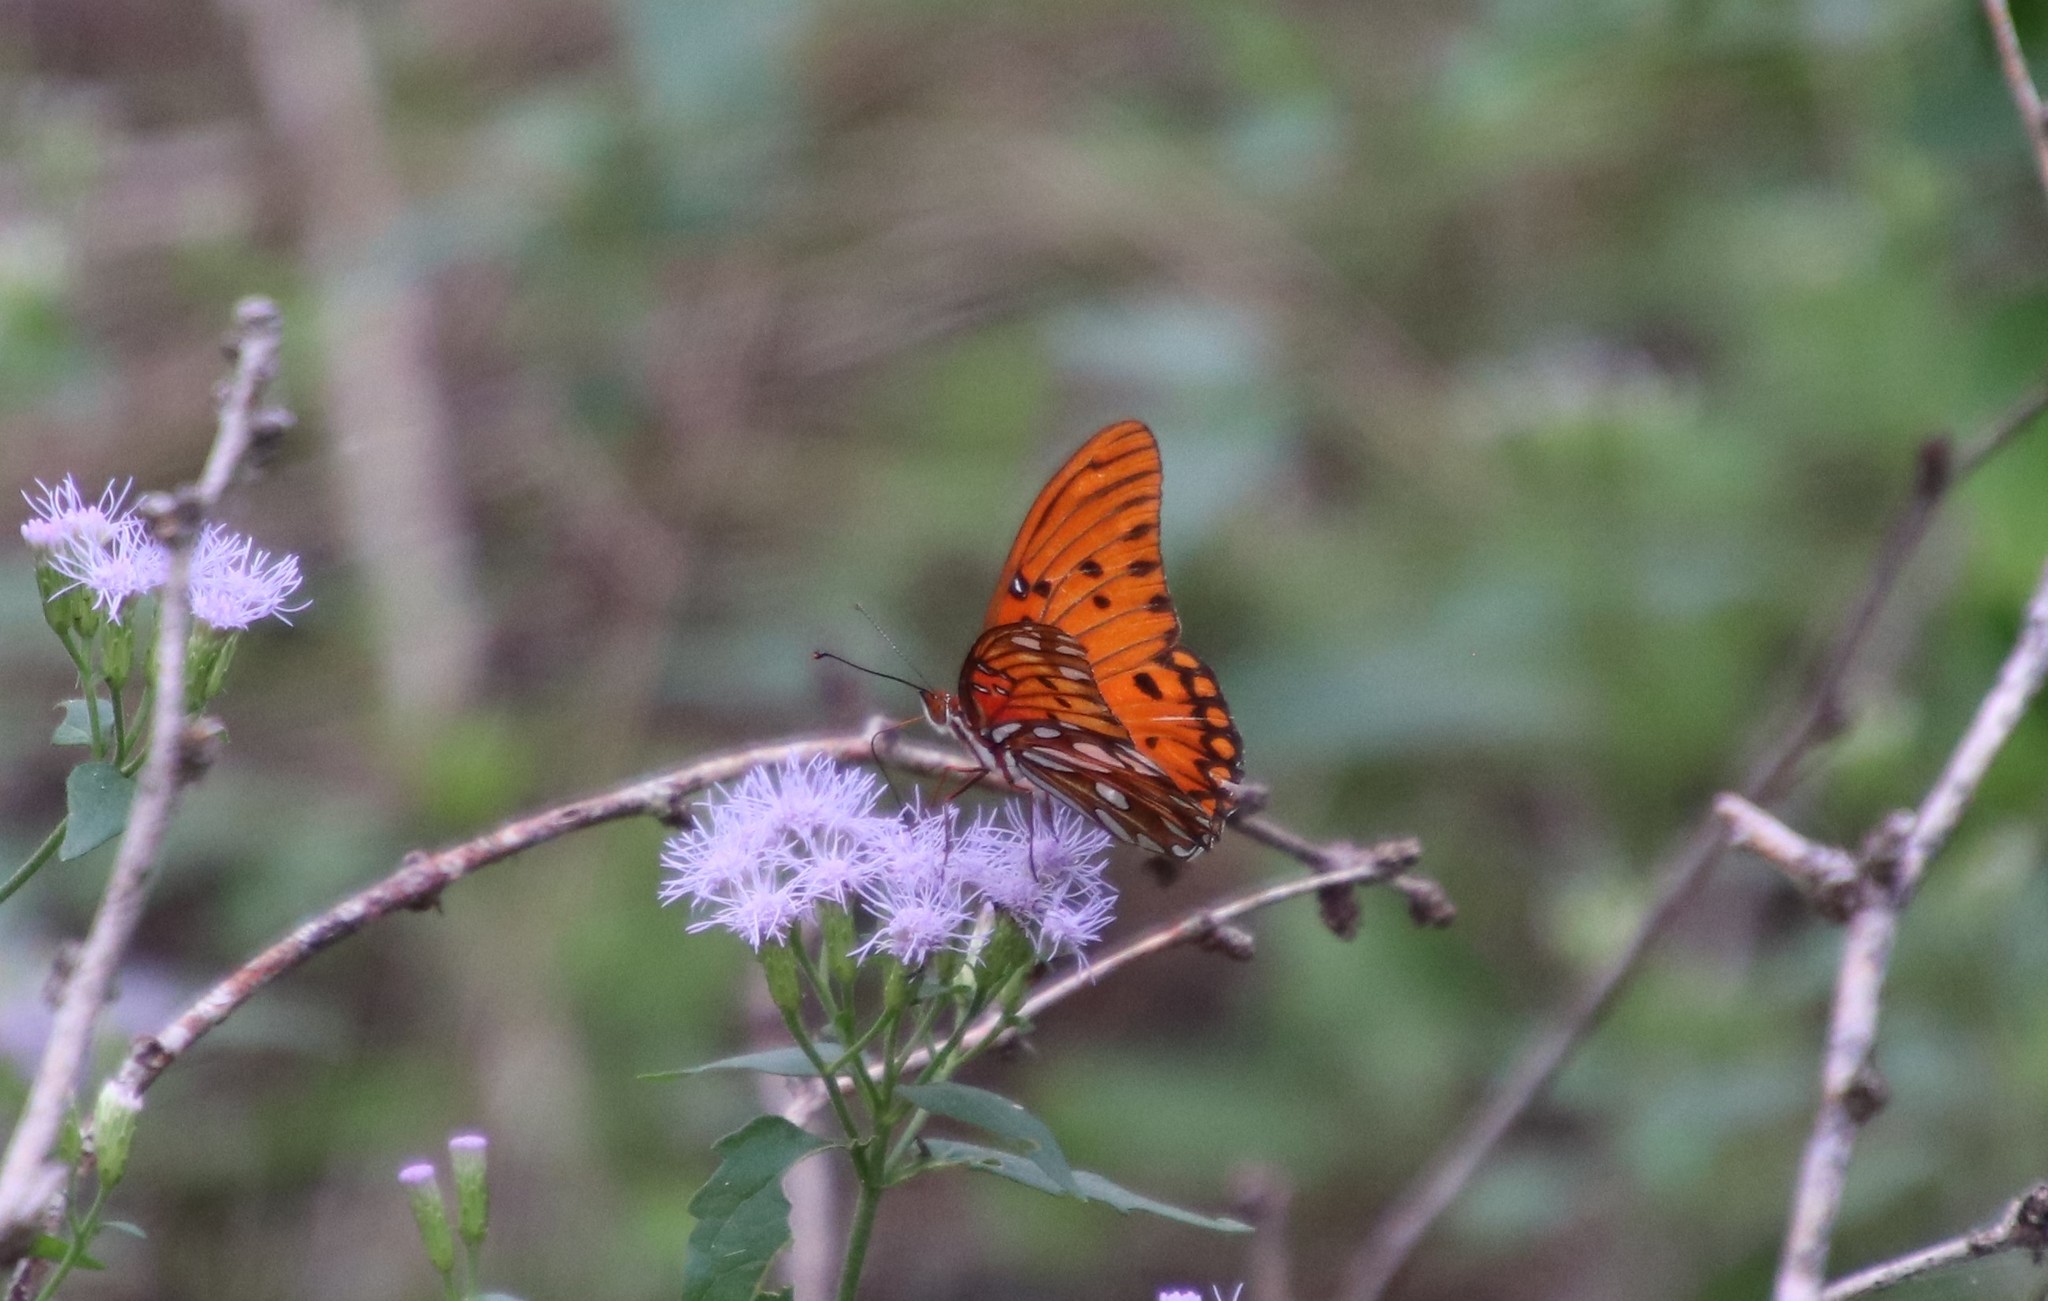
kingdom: Animalia
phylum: Arthropoda
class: Insecta
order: Lepidoptera
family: Nymphalidae
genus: Dione
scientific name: Dione vanillae
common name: Gulf fritillary
